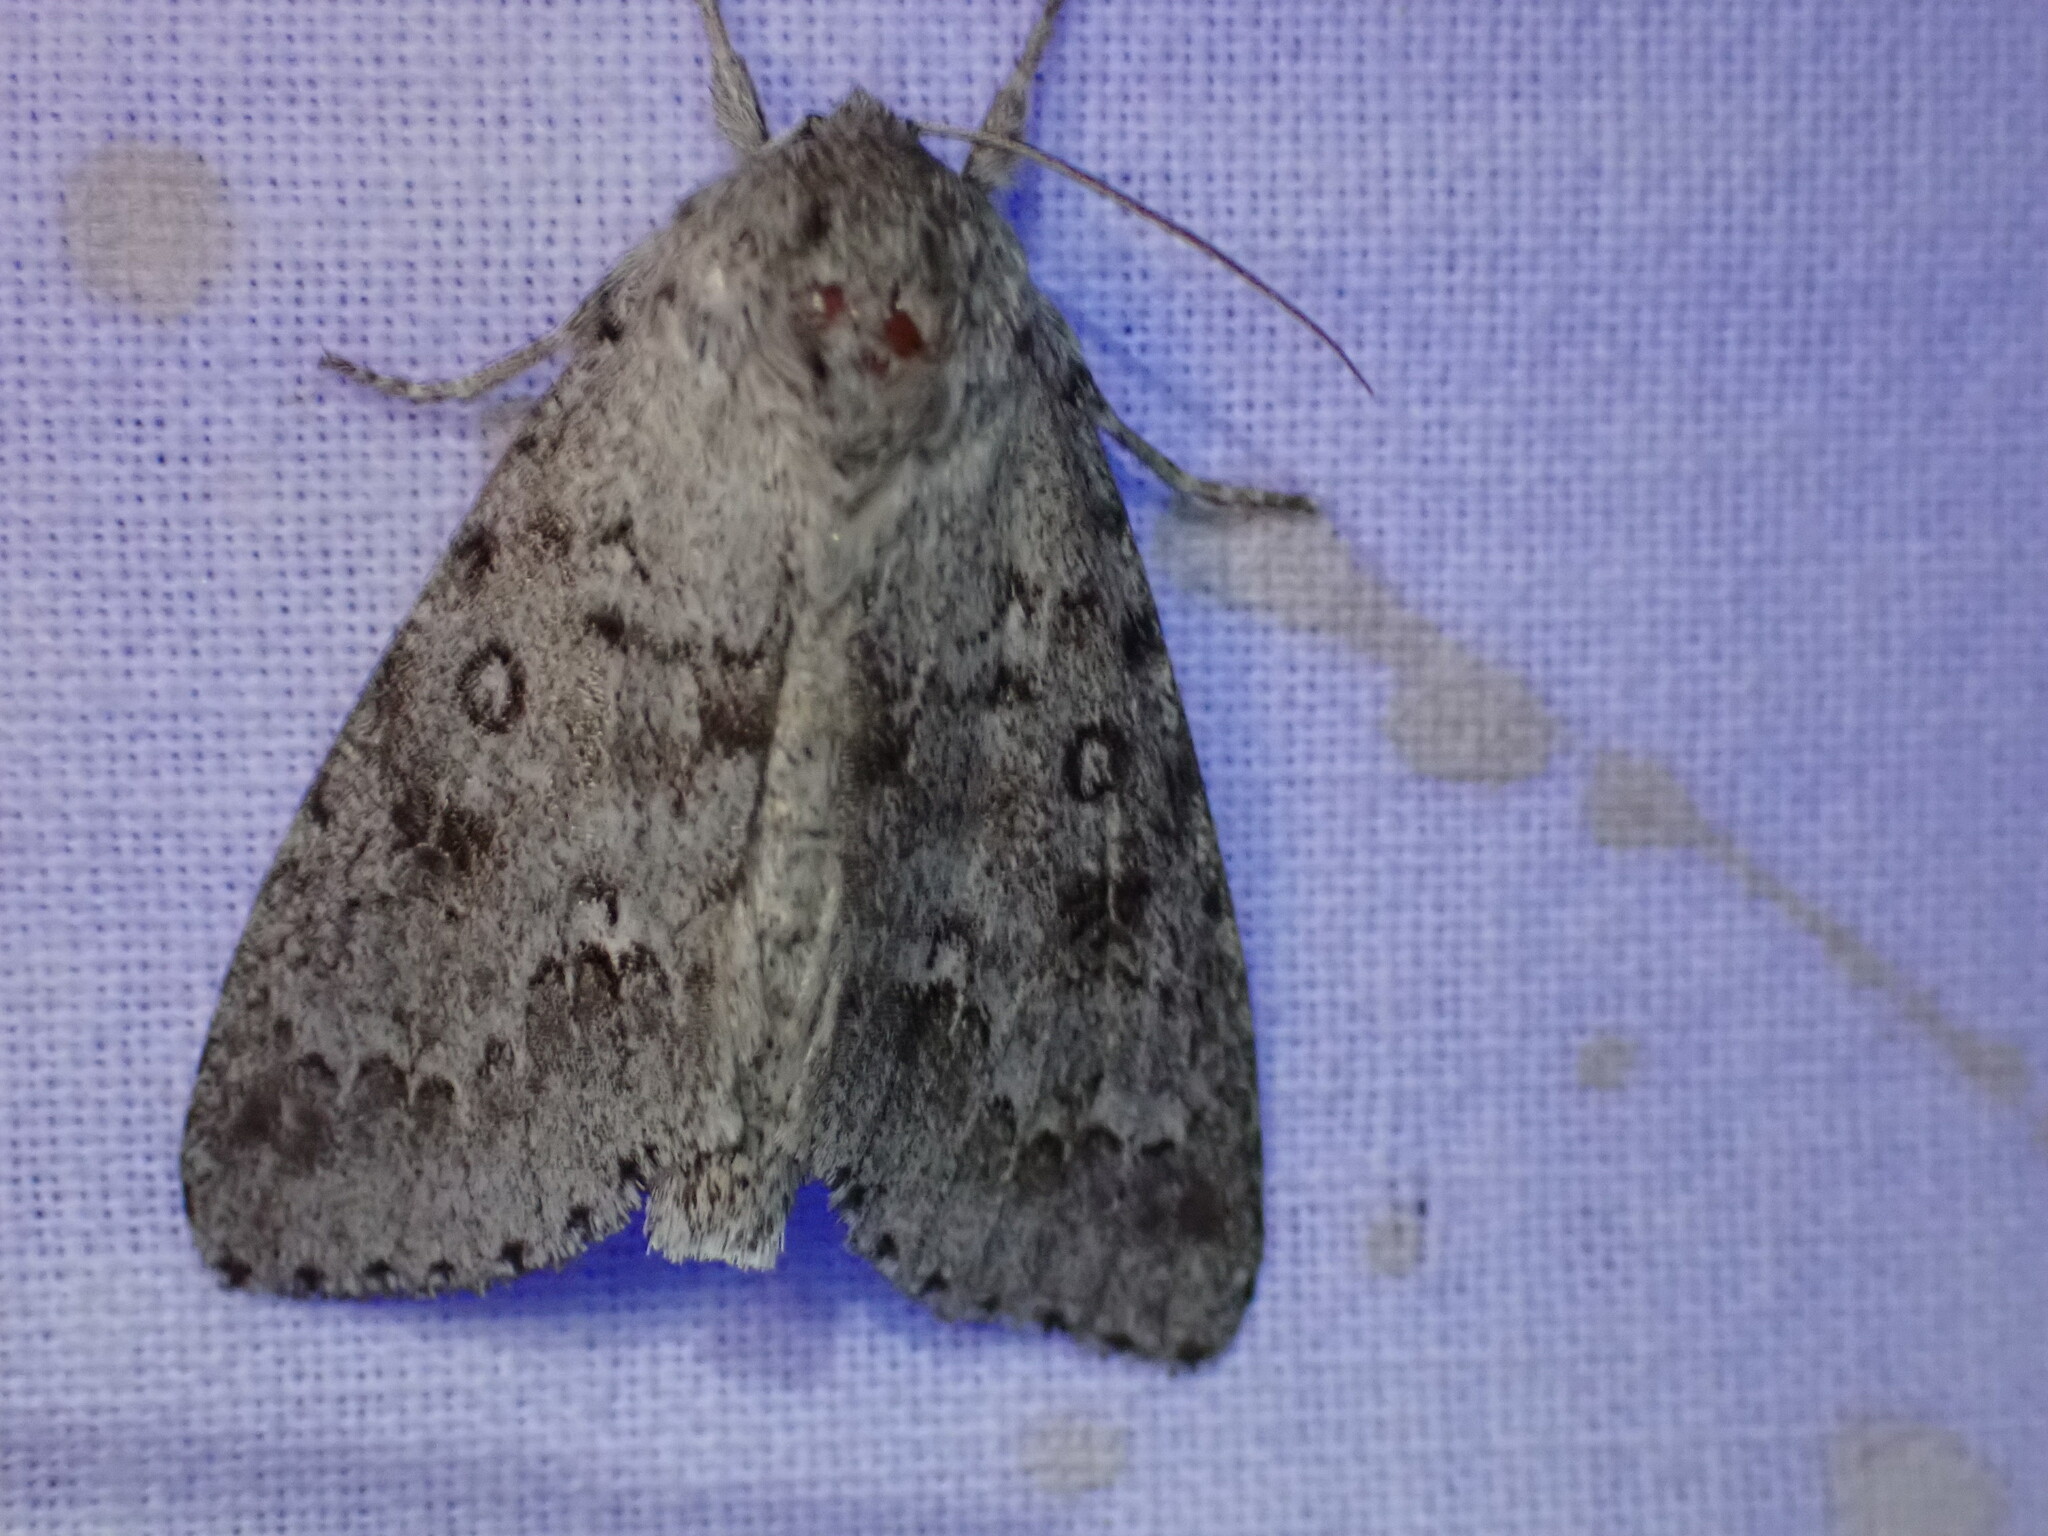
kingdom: Animalia
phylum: Arthropoda
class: Insecta
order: Lepidoptera
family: Noctuidae
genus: Acronicta
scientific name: Acronicta insita
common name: Large gray dagger
